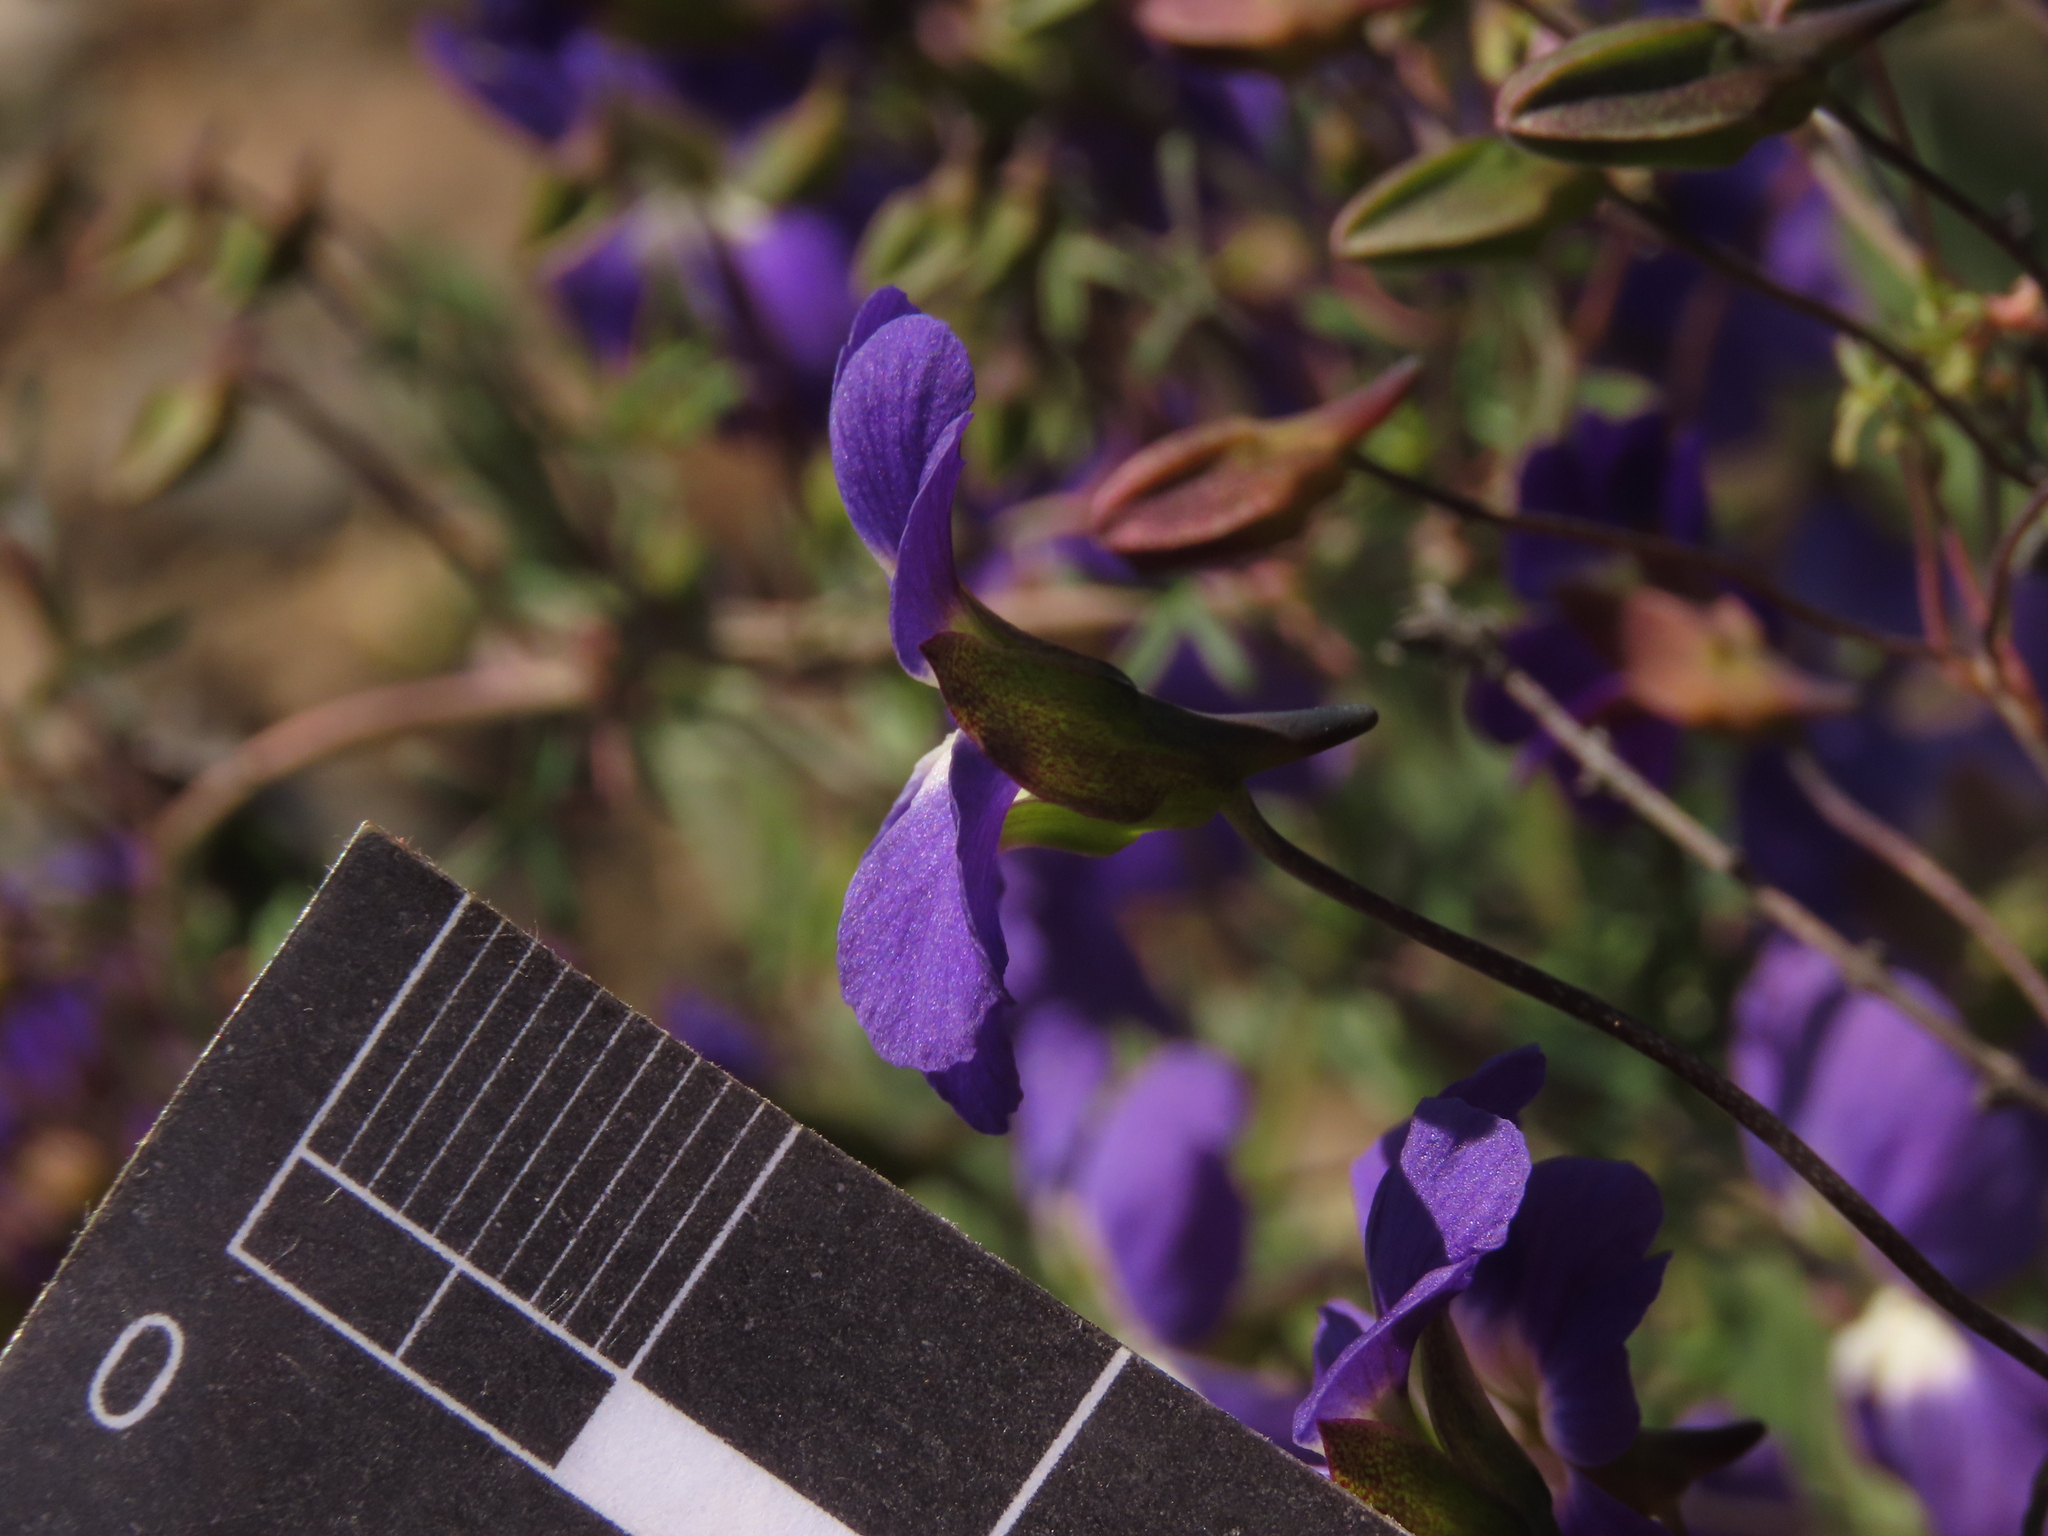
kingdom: Plantae
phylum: Tracheophyta
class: Magnoliopsida
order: Brassicales
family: Tropaeolaceae
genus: Tropaeolum
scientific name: Tropaeolum azureum
